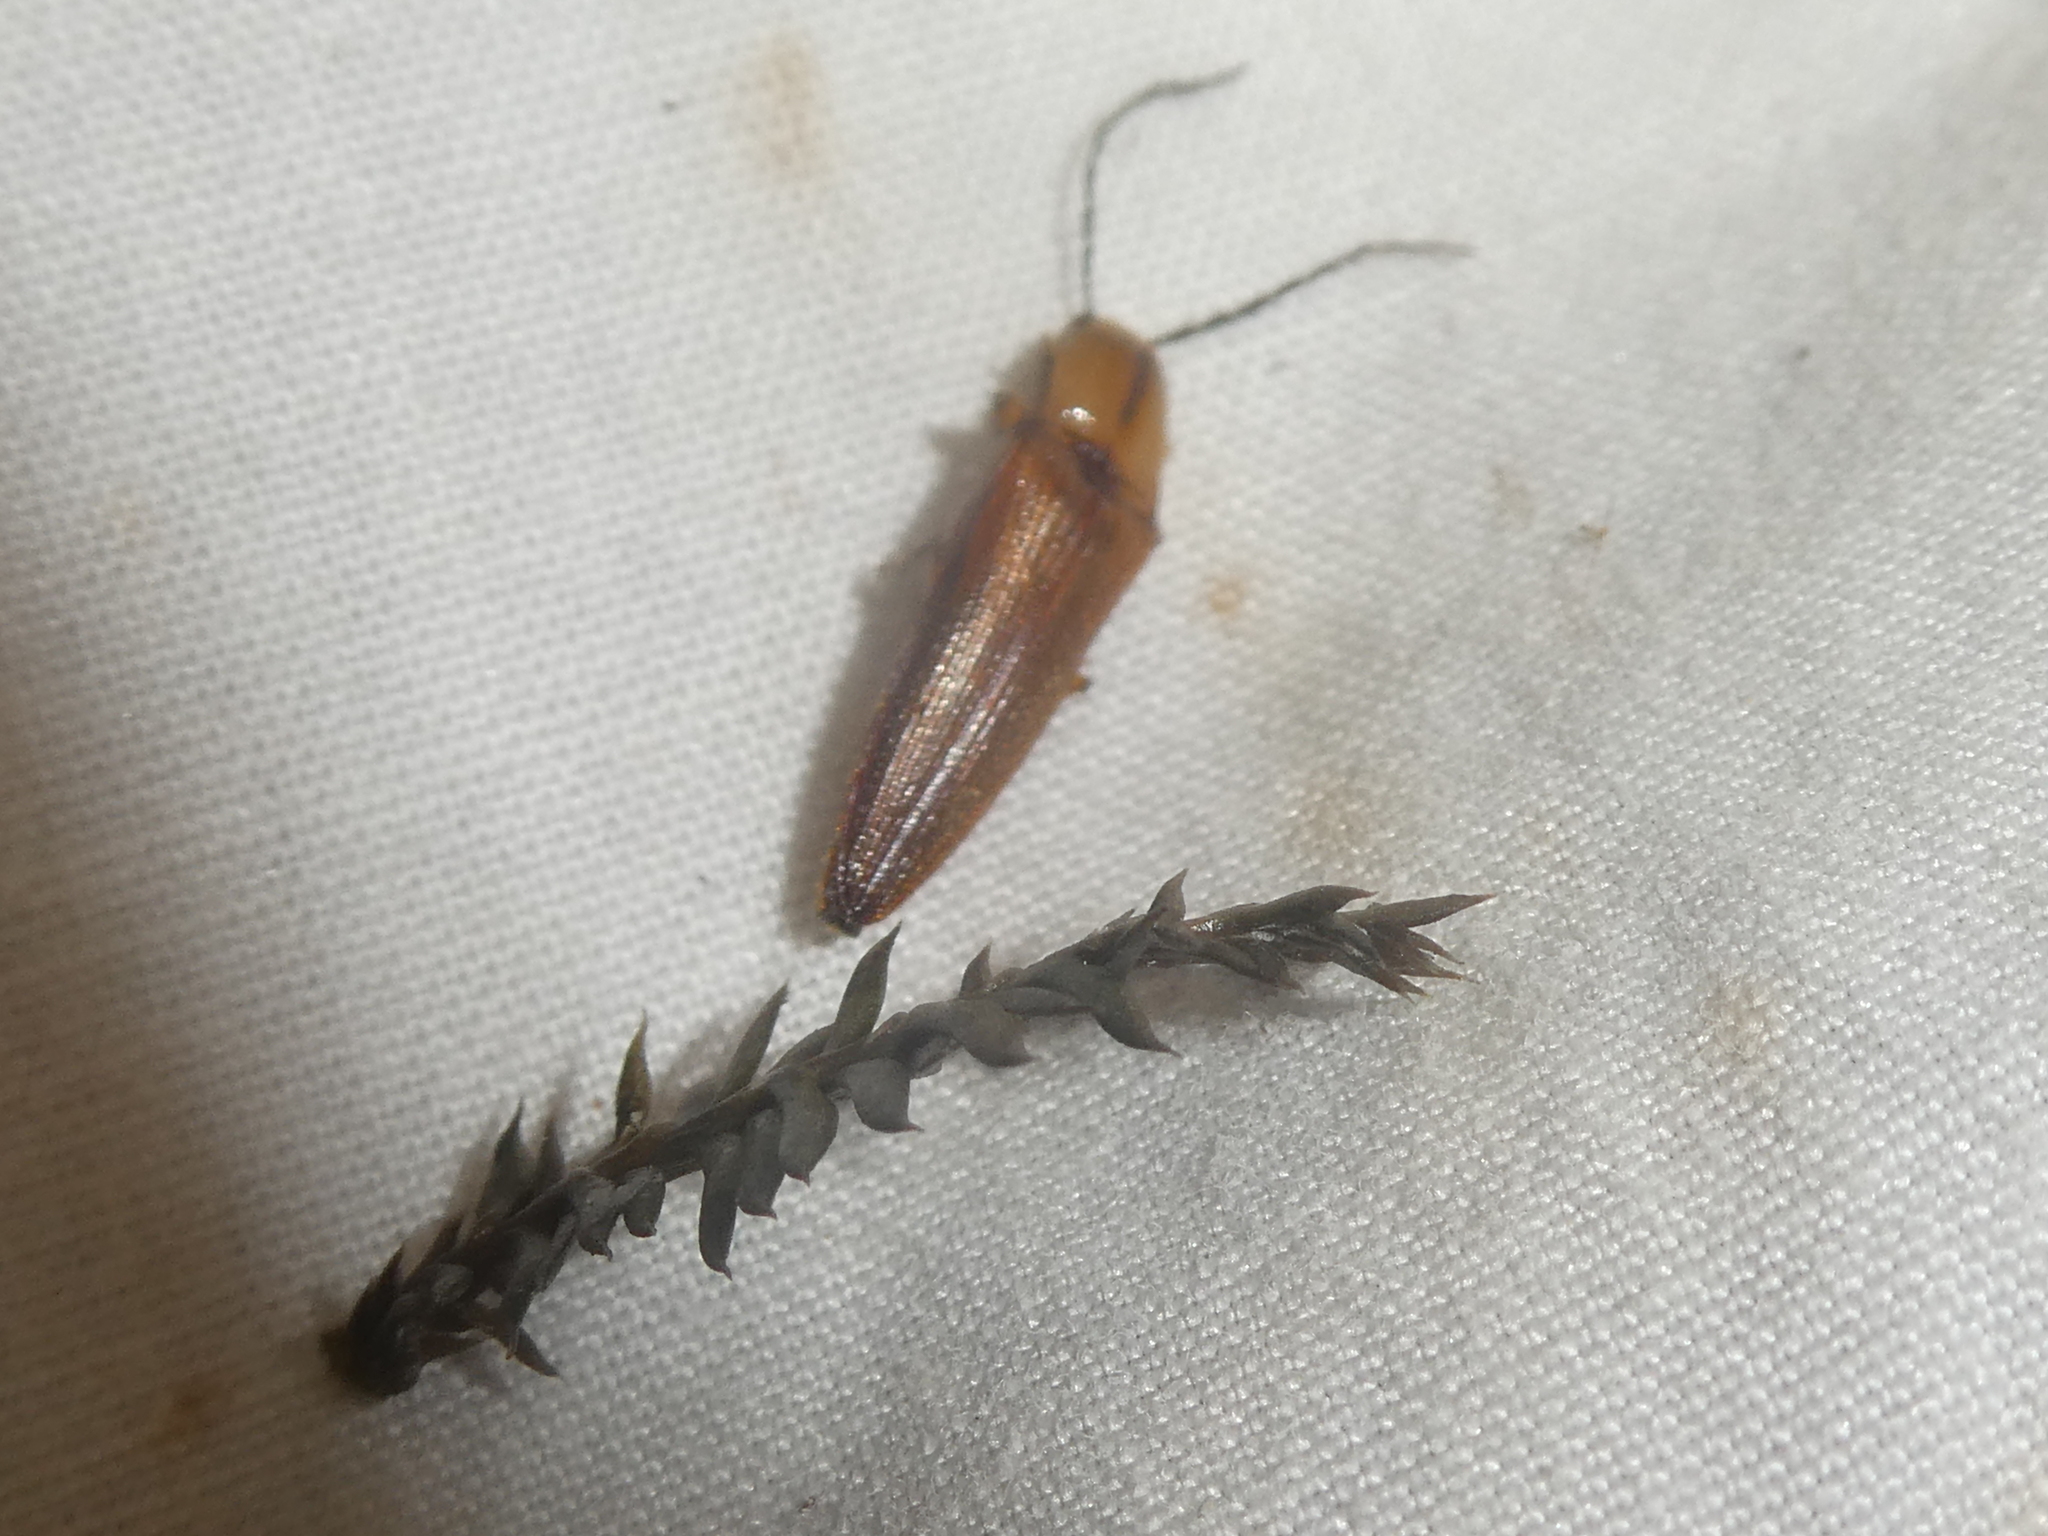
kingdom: Animalia
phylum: Arthropoda
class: Insecta
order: Coleoptera
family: Elateridae
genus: Sphaenelater
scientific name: Sphaenelater
